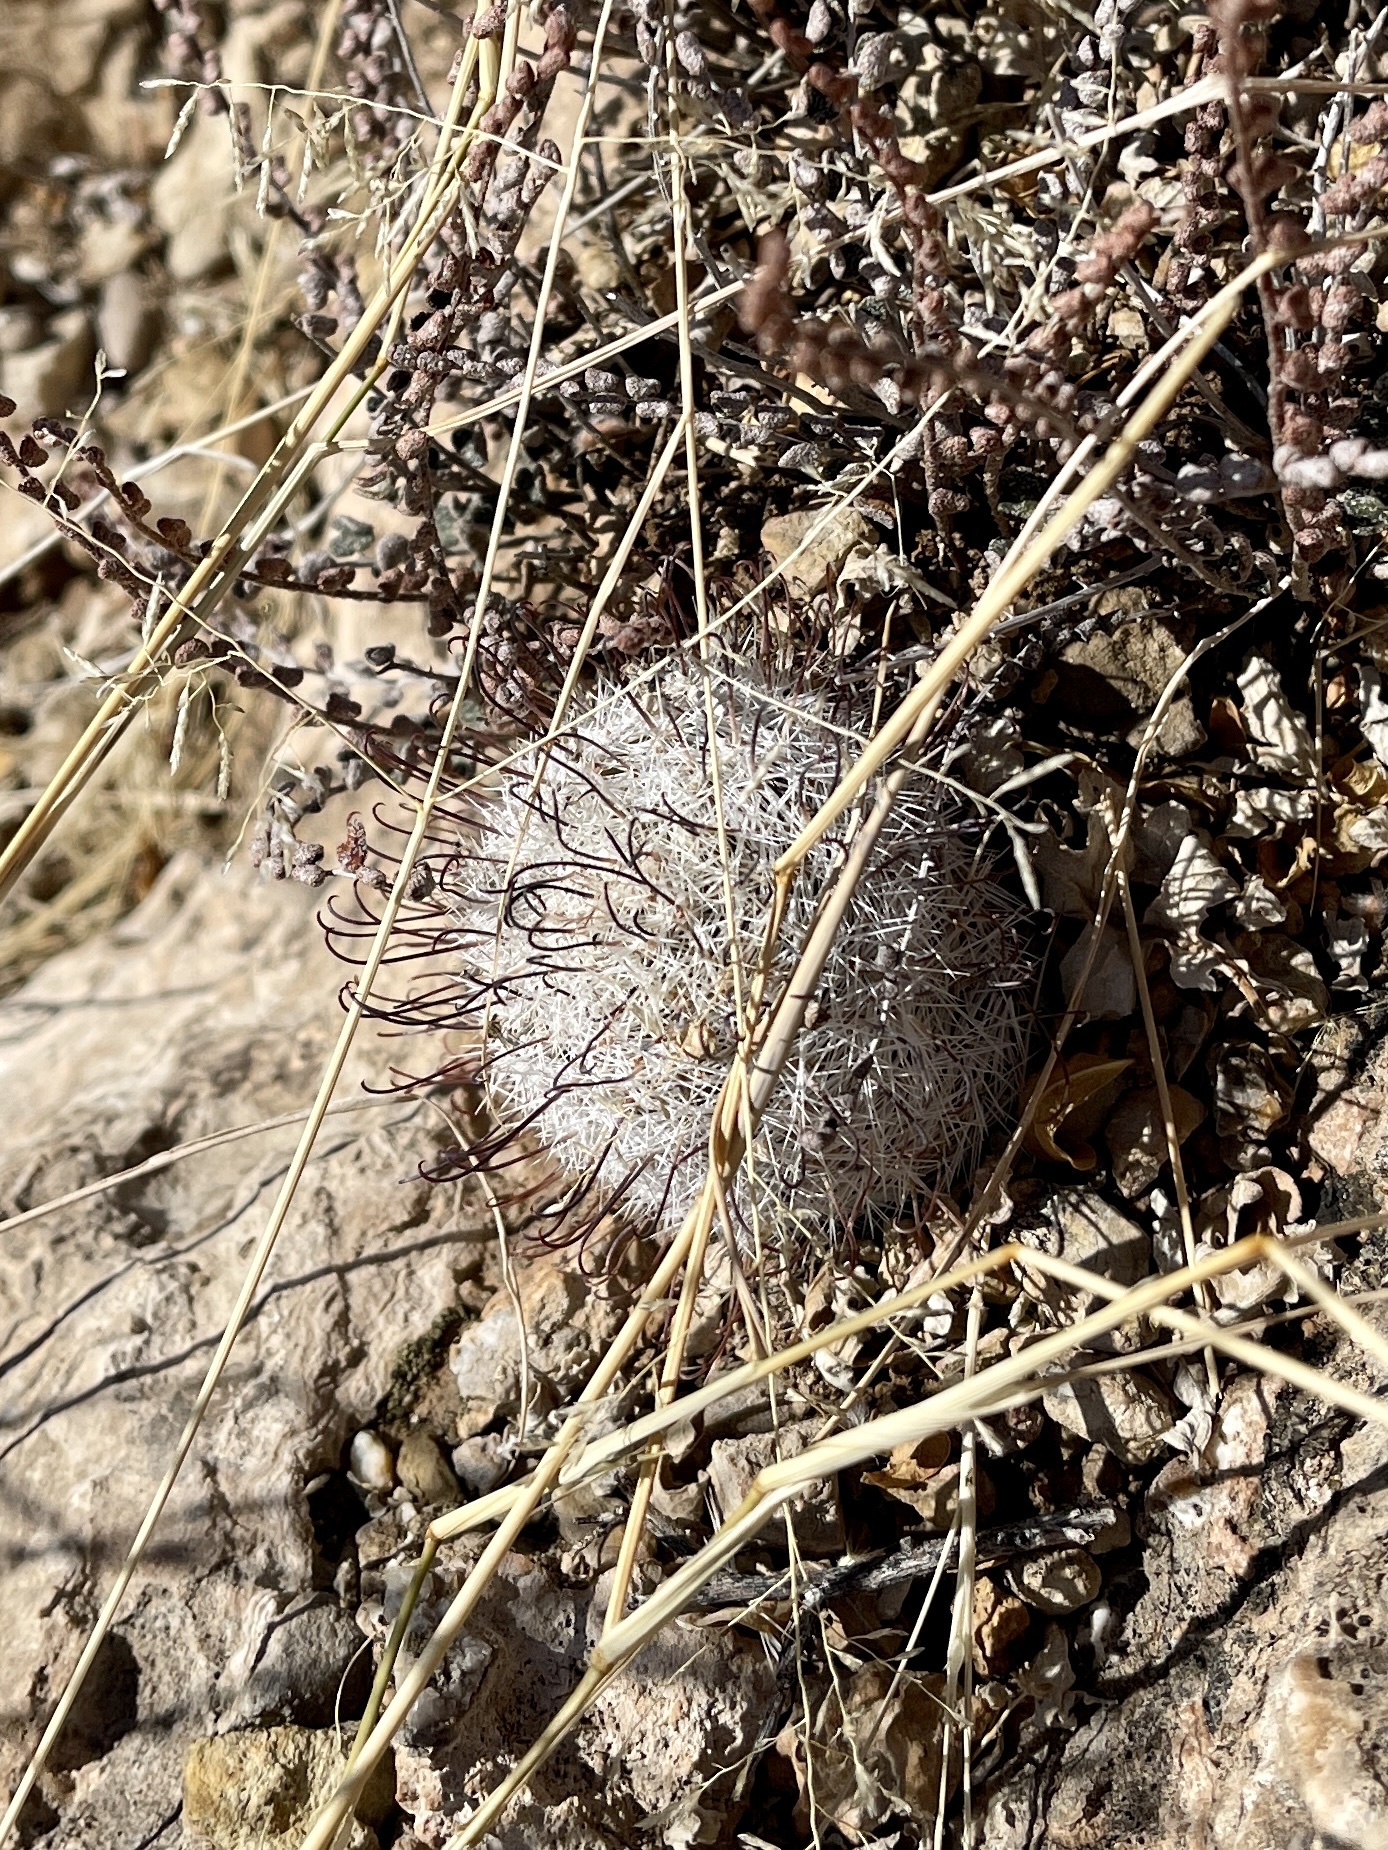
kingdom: Plantae
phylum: Tracheophyta
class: Magnoliopsida
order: Caryophyllales
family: Cactaceae
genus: Cochemiea
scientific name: Cochemiea grahamii
